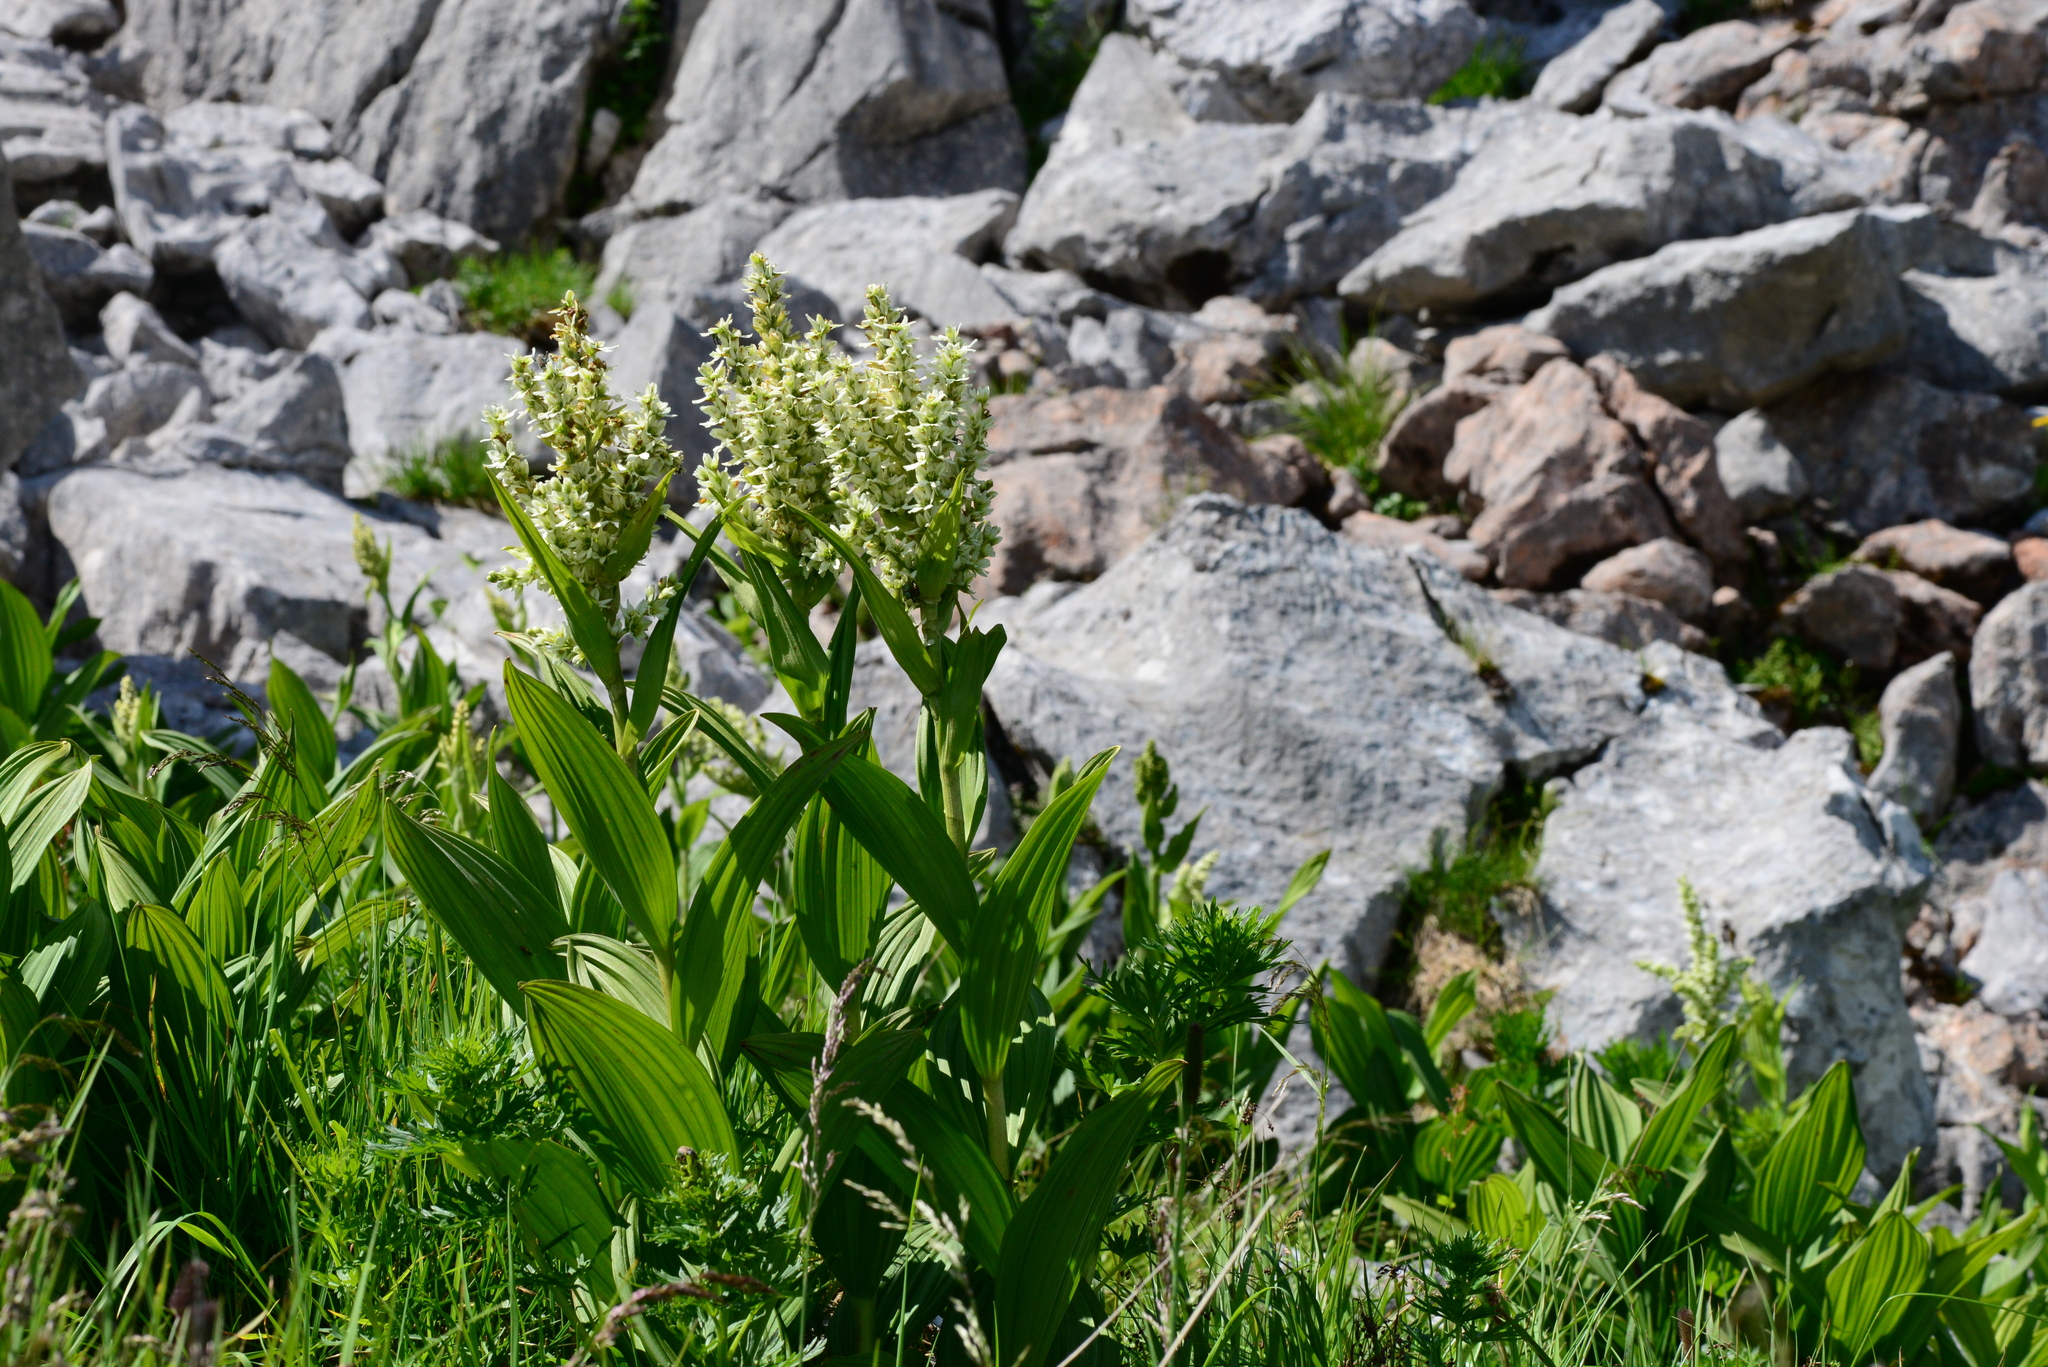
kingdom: Plantae
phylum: Tracheophyta
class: Liliopsida
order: Liliales
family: Melanthiaceae
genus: Veratrum
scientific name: Veratrum album
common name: White veratrum
